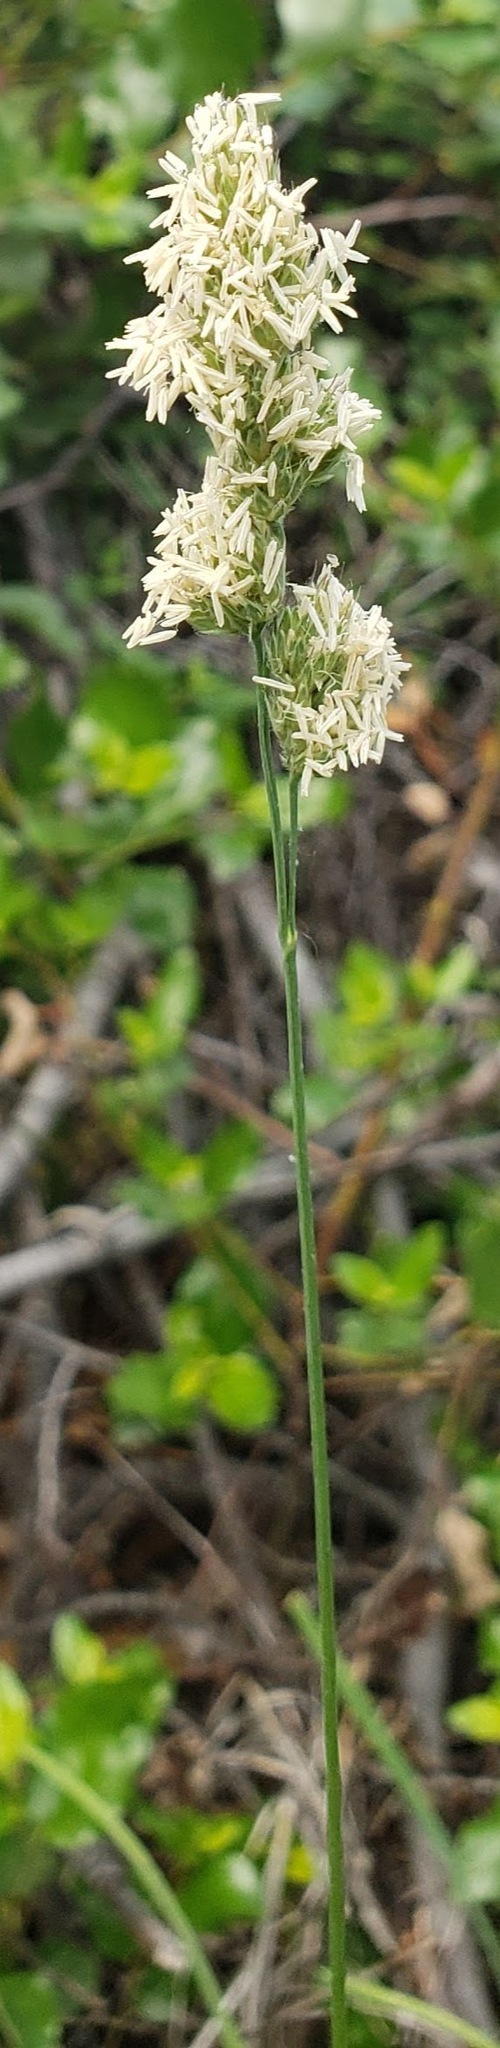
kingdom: Plantae
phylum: Tracheophyta
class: Liliopsida
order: Poales
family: Poaceae
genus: Dactylis
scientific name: Dactylis glomerata
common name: Orchardgrass
